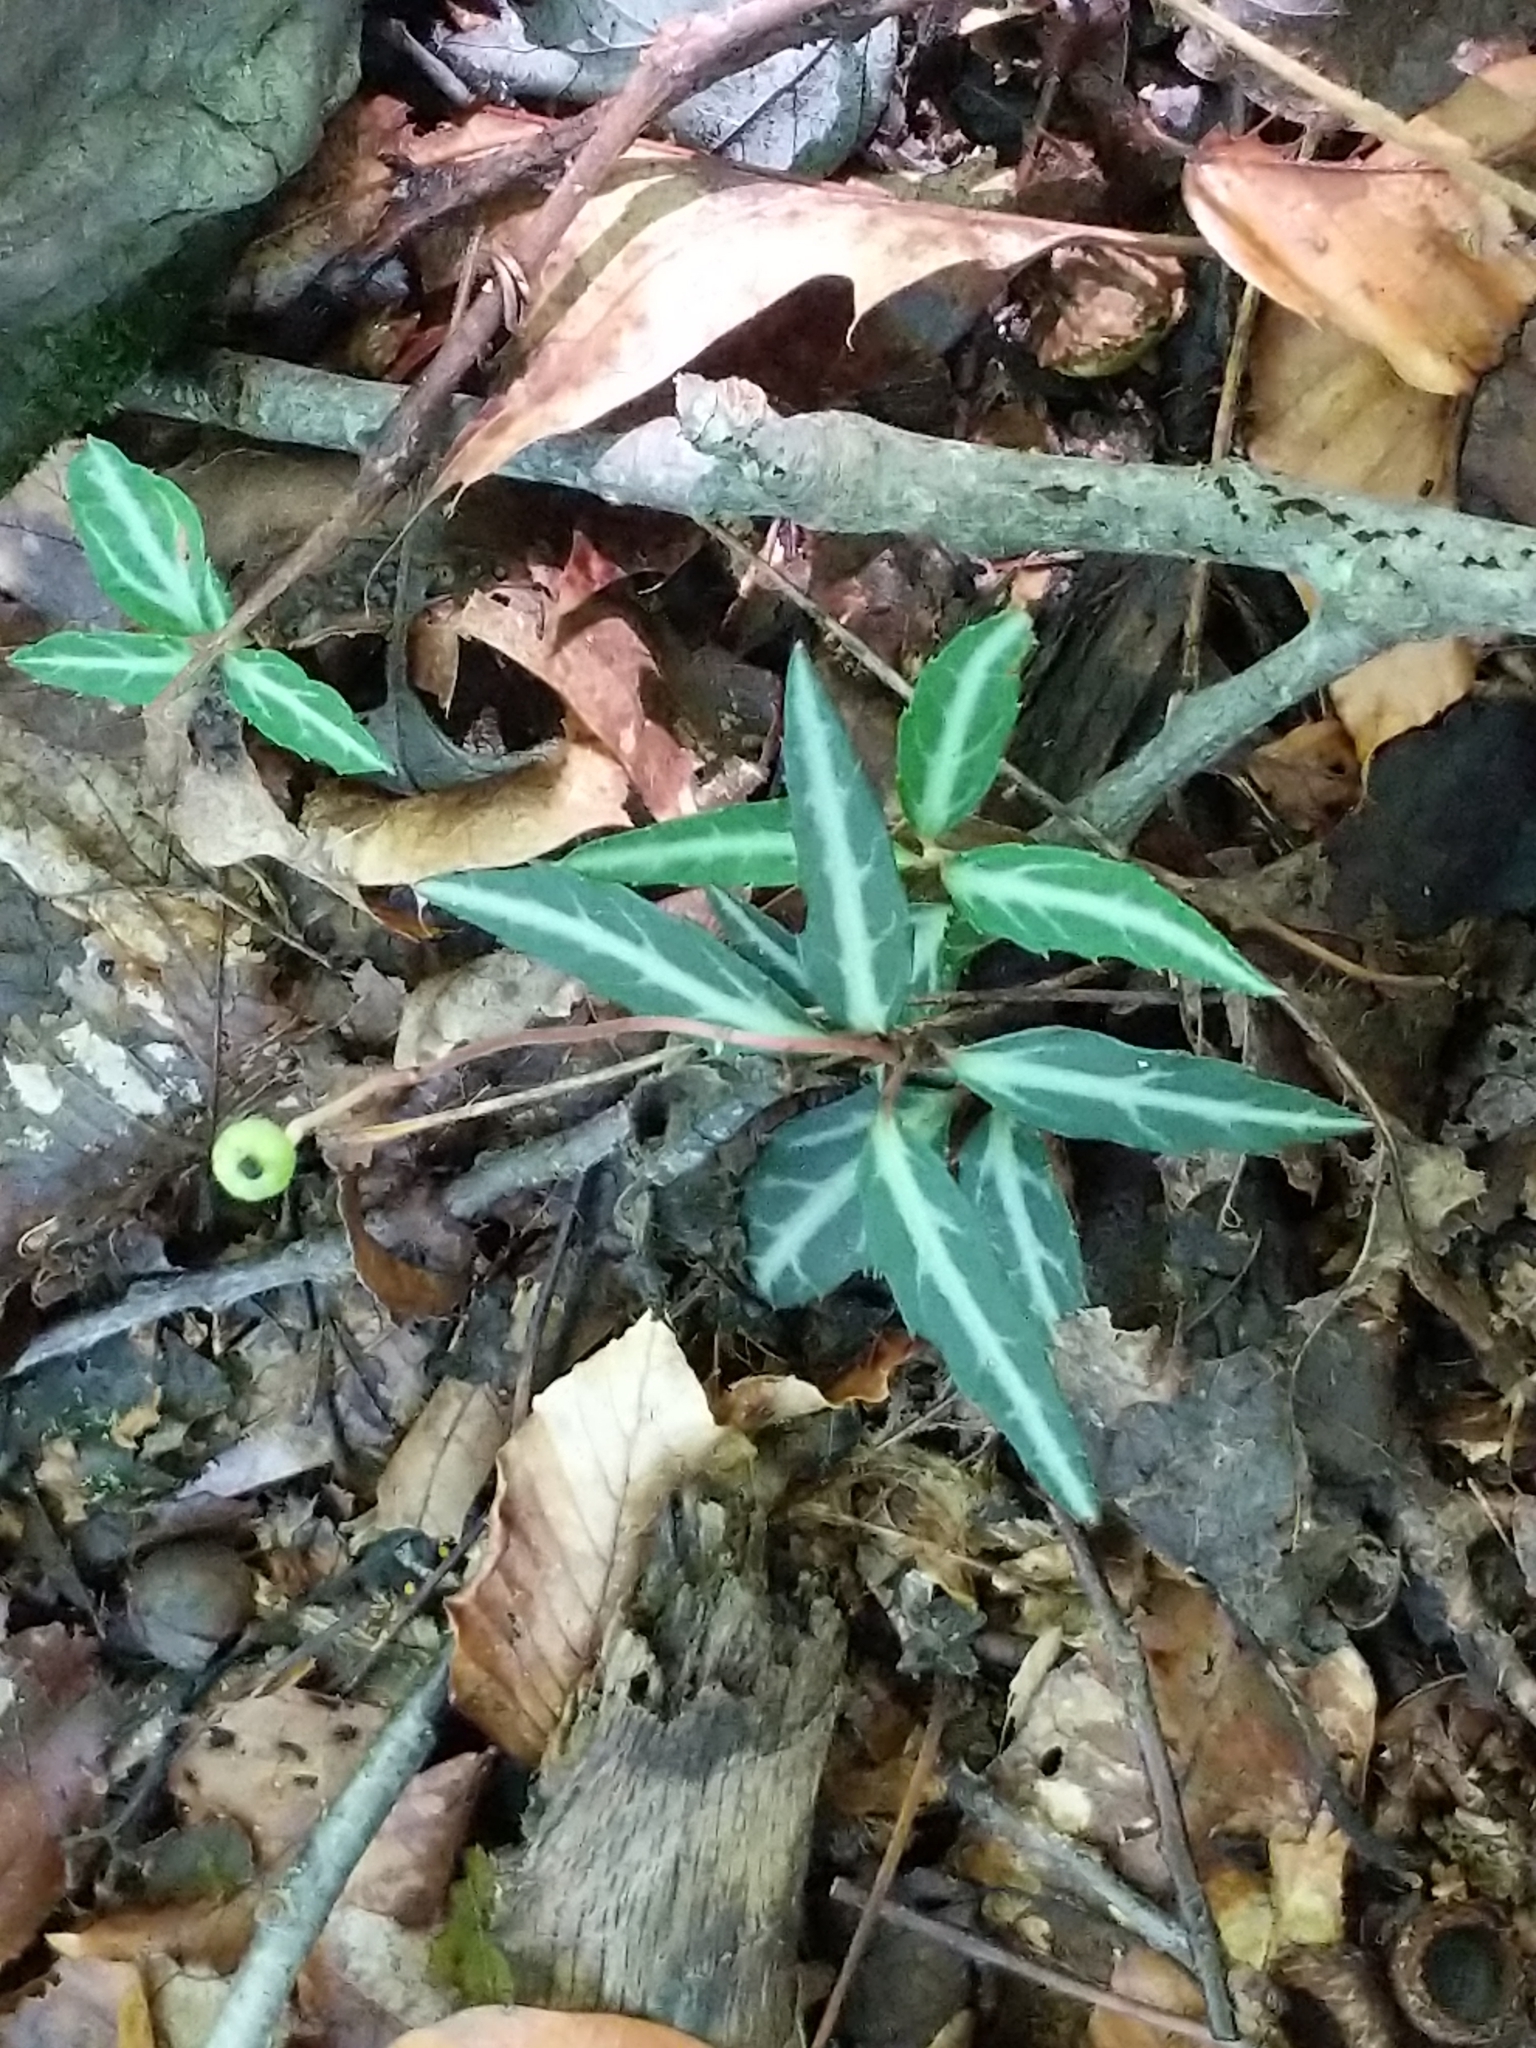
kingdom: Plantae
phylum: Tracheophyta
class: Magnoliopsida
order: Ericales
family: Ericaceae
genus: Chimaphila
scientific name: Chimaphila maculata
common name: Spotted pipsissewa
